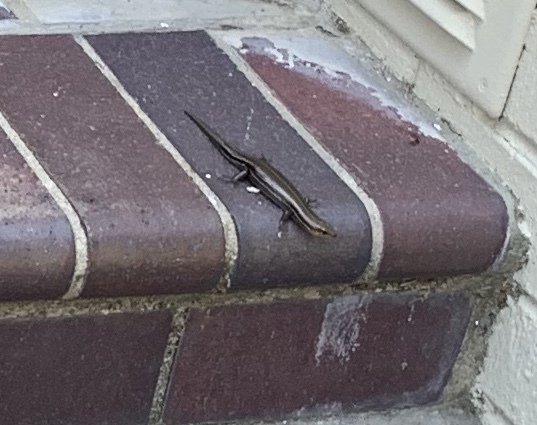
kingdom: Animalia
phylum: Chordata
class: Squamata
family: Scincidae
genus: Plestiodon
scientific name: Plestiodon fasciatus
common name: Five-lined skink
